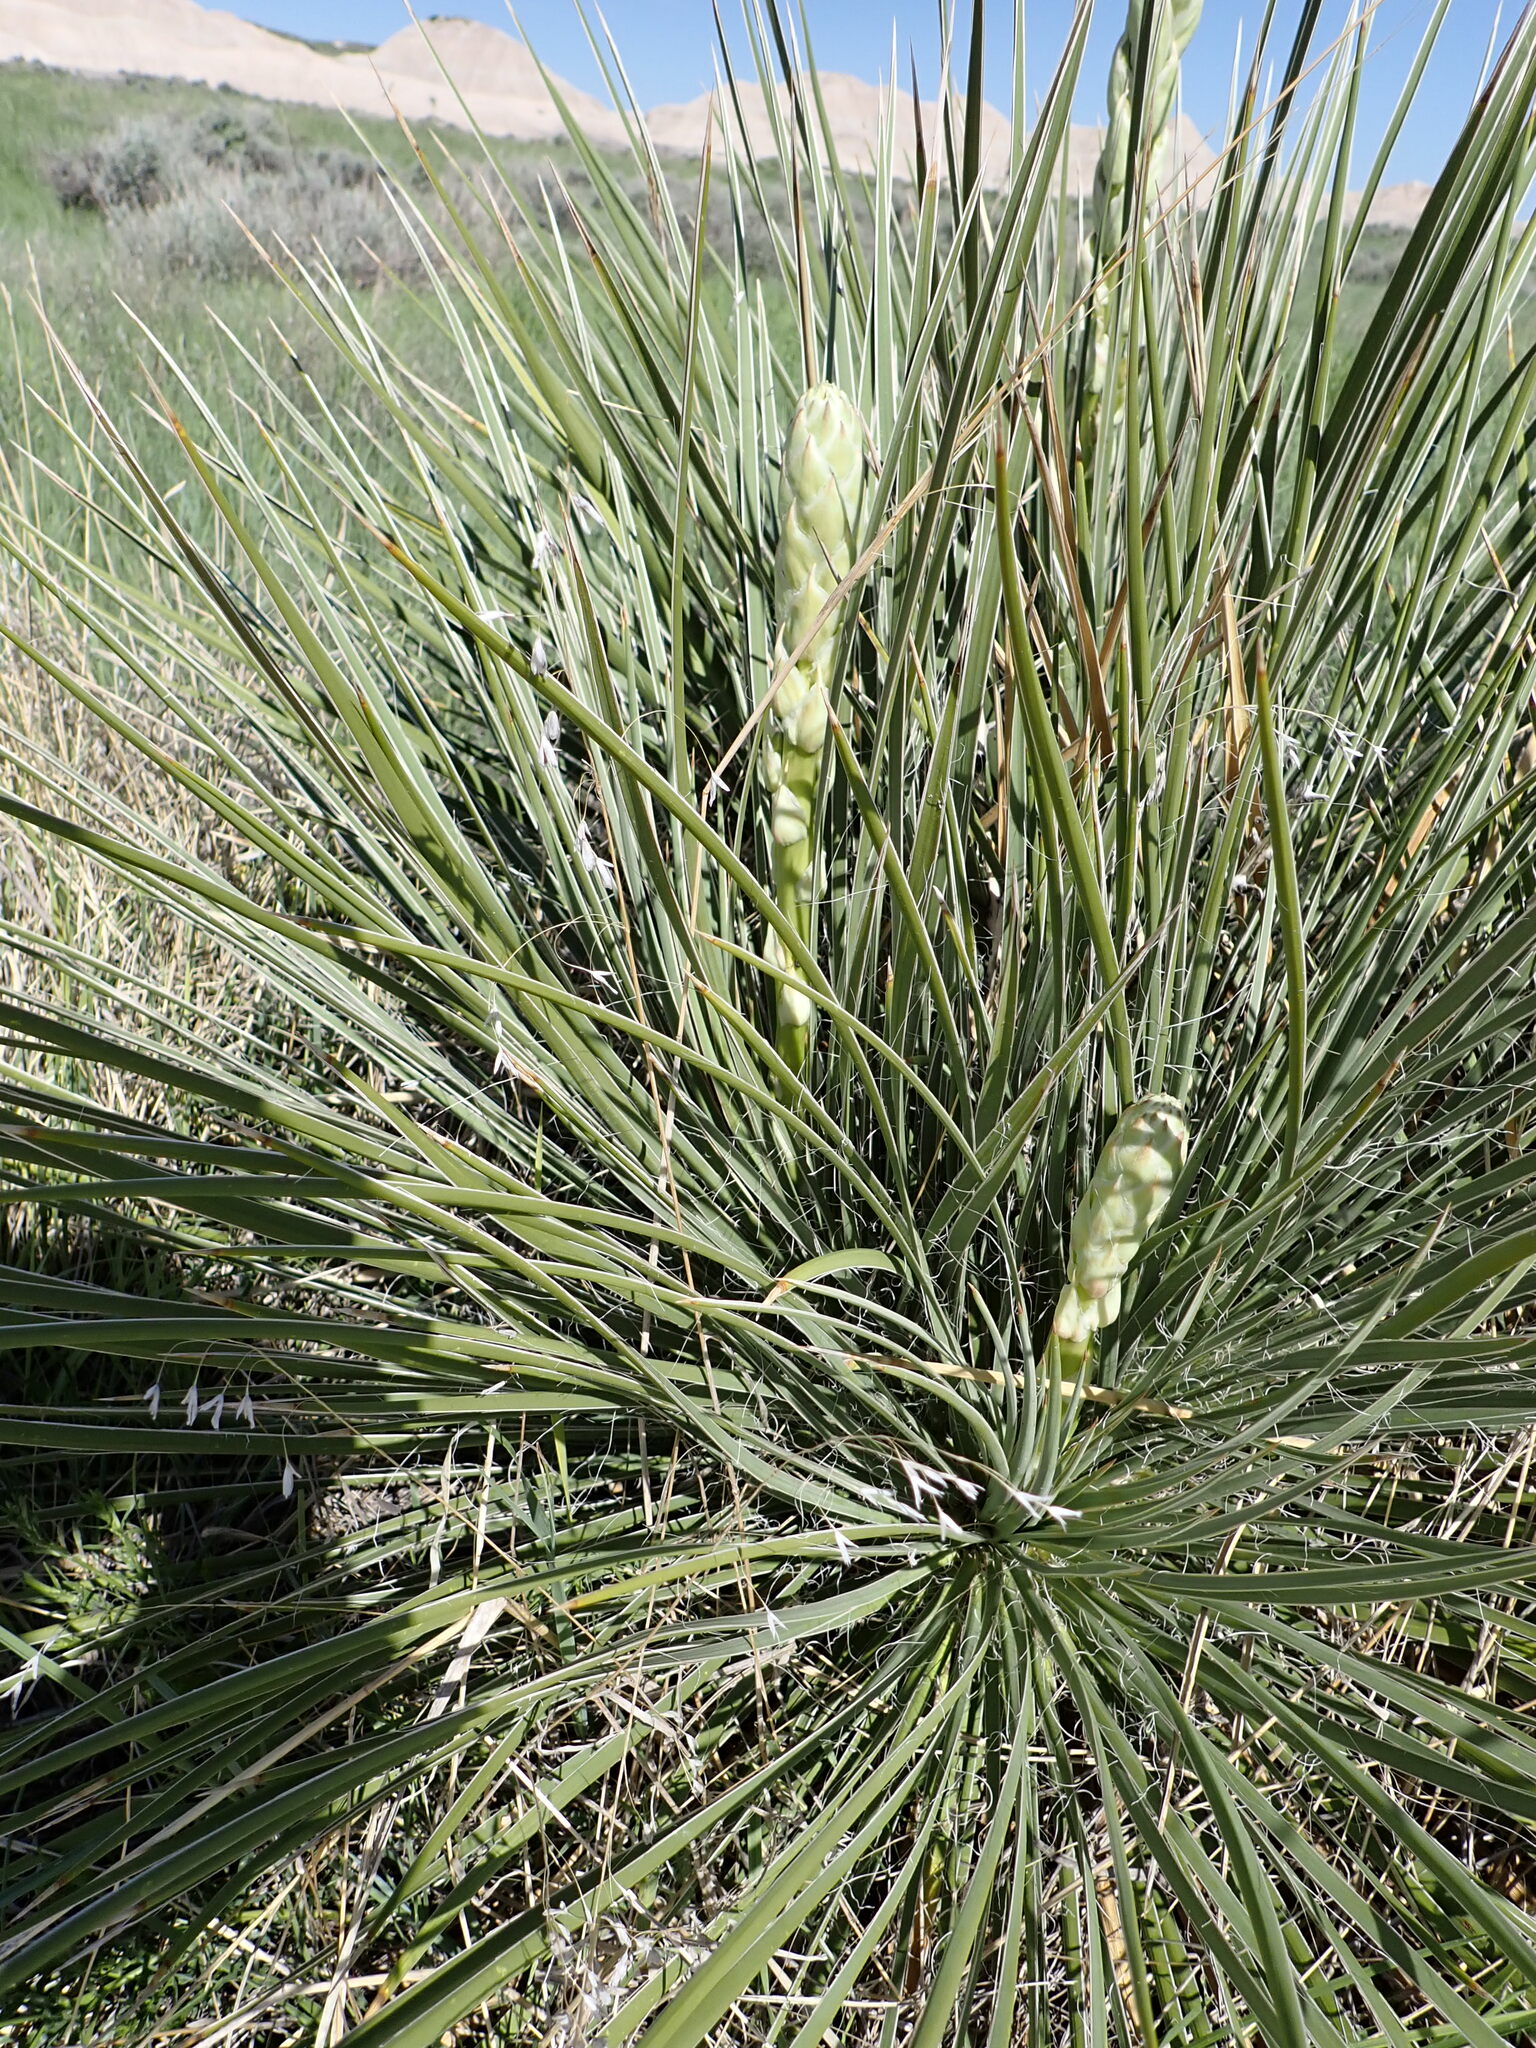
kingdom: Plantae
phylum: Tracheophyta
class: Liliopsida
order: Asparagales
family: Asparagaceae
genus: Yucca
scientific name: Yucca glauca
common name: Great plains yucca
